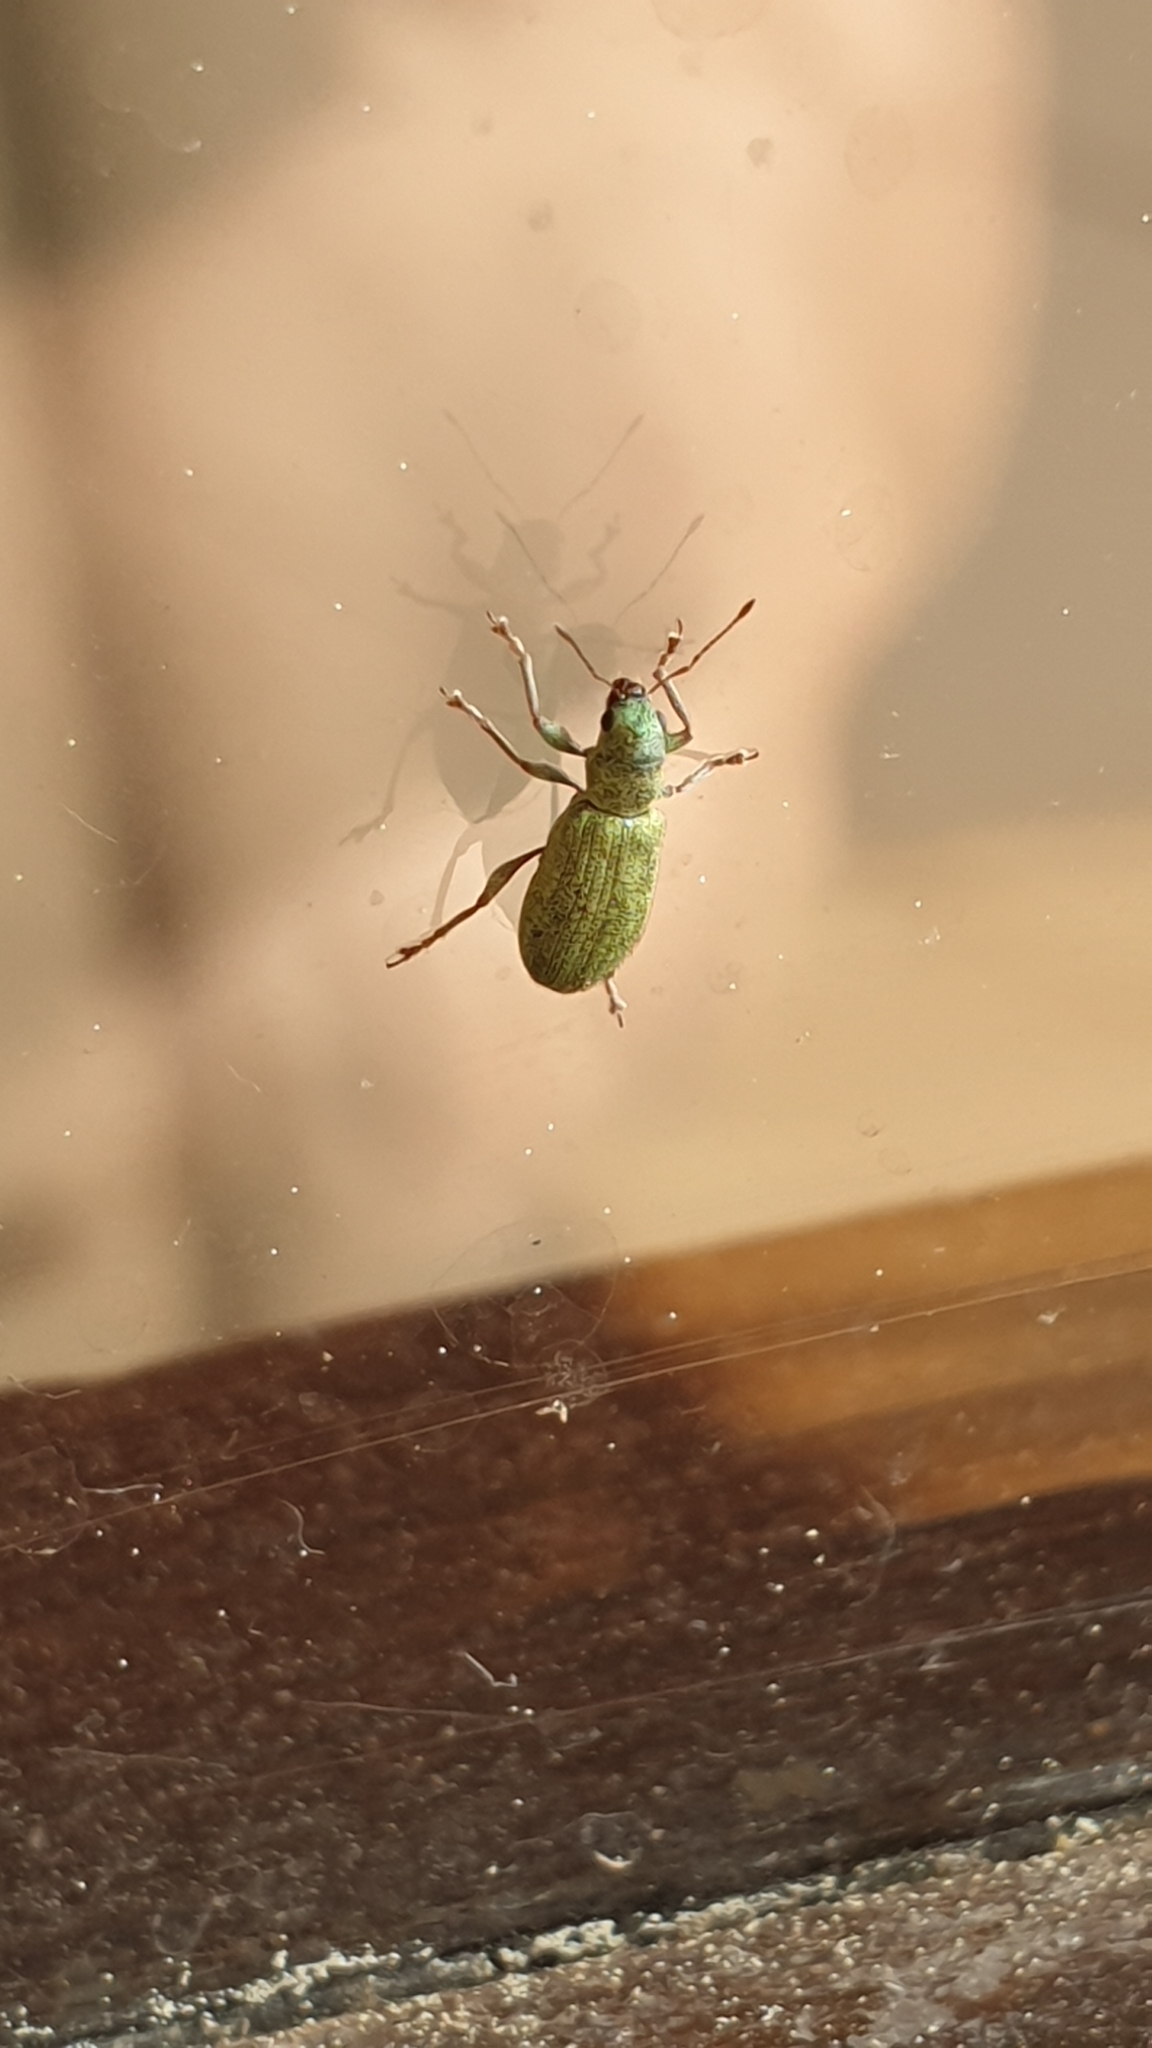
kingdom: Animalia
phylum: Arthropoda
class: Insecta
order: Coleoptera
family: Curculionidae
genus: Pachyrhinus
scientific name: Pachyrhinus lethierryi
